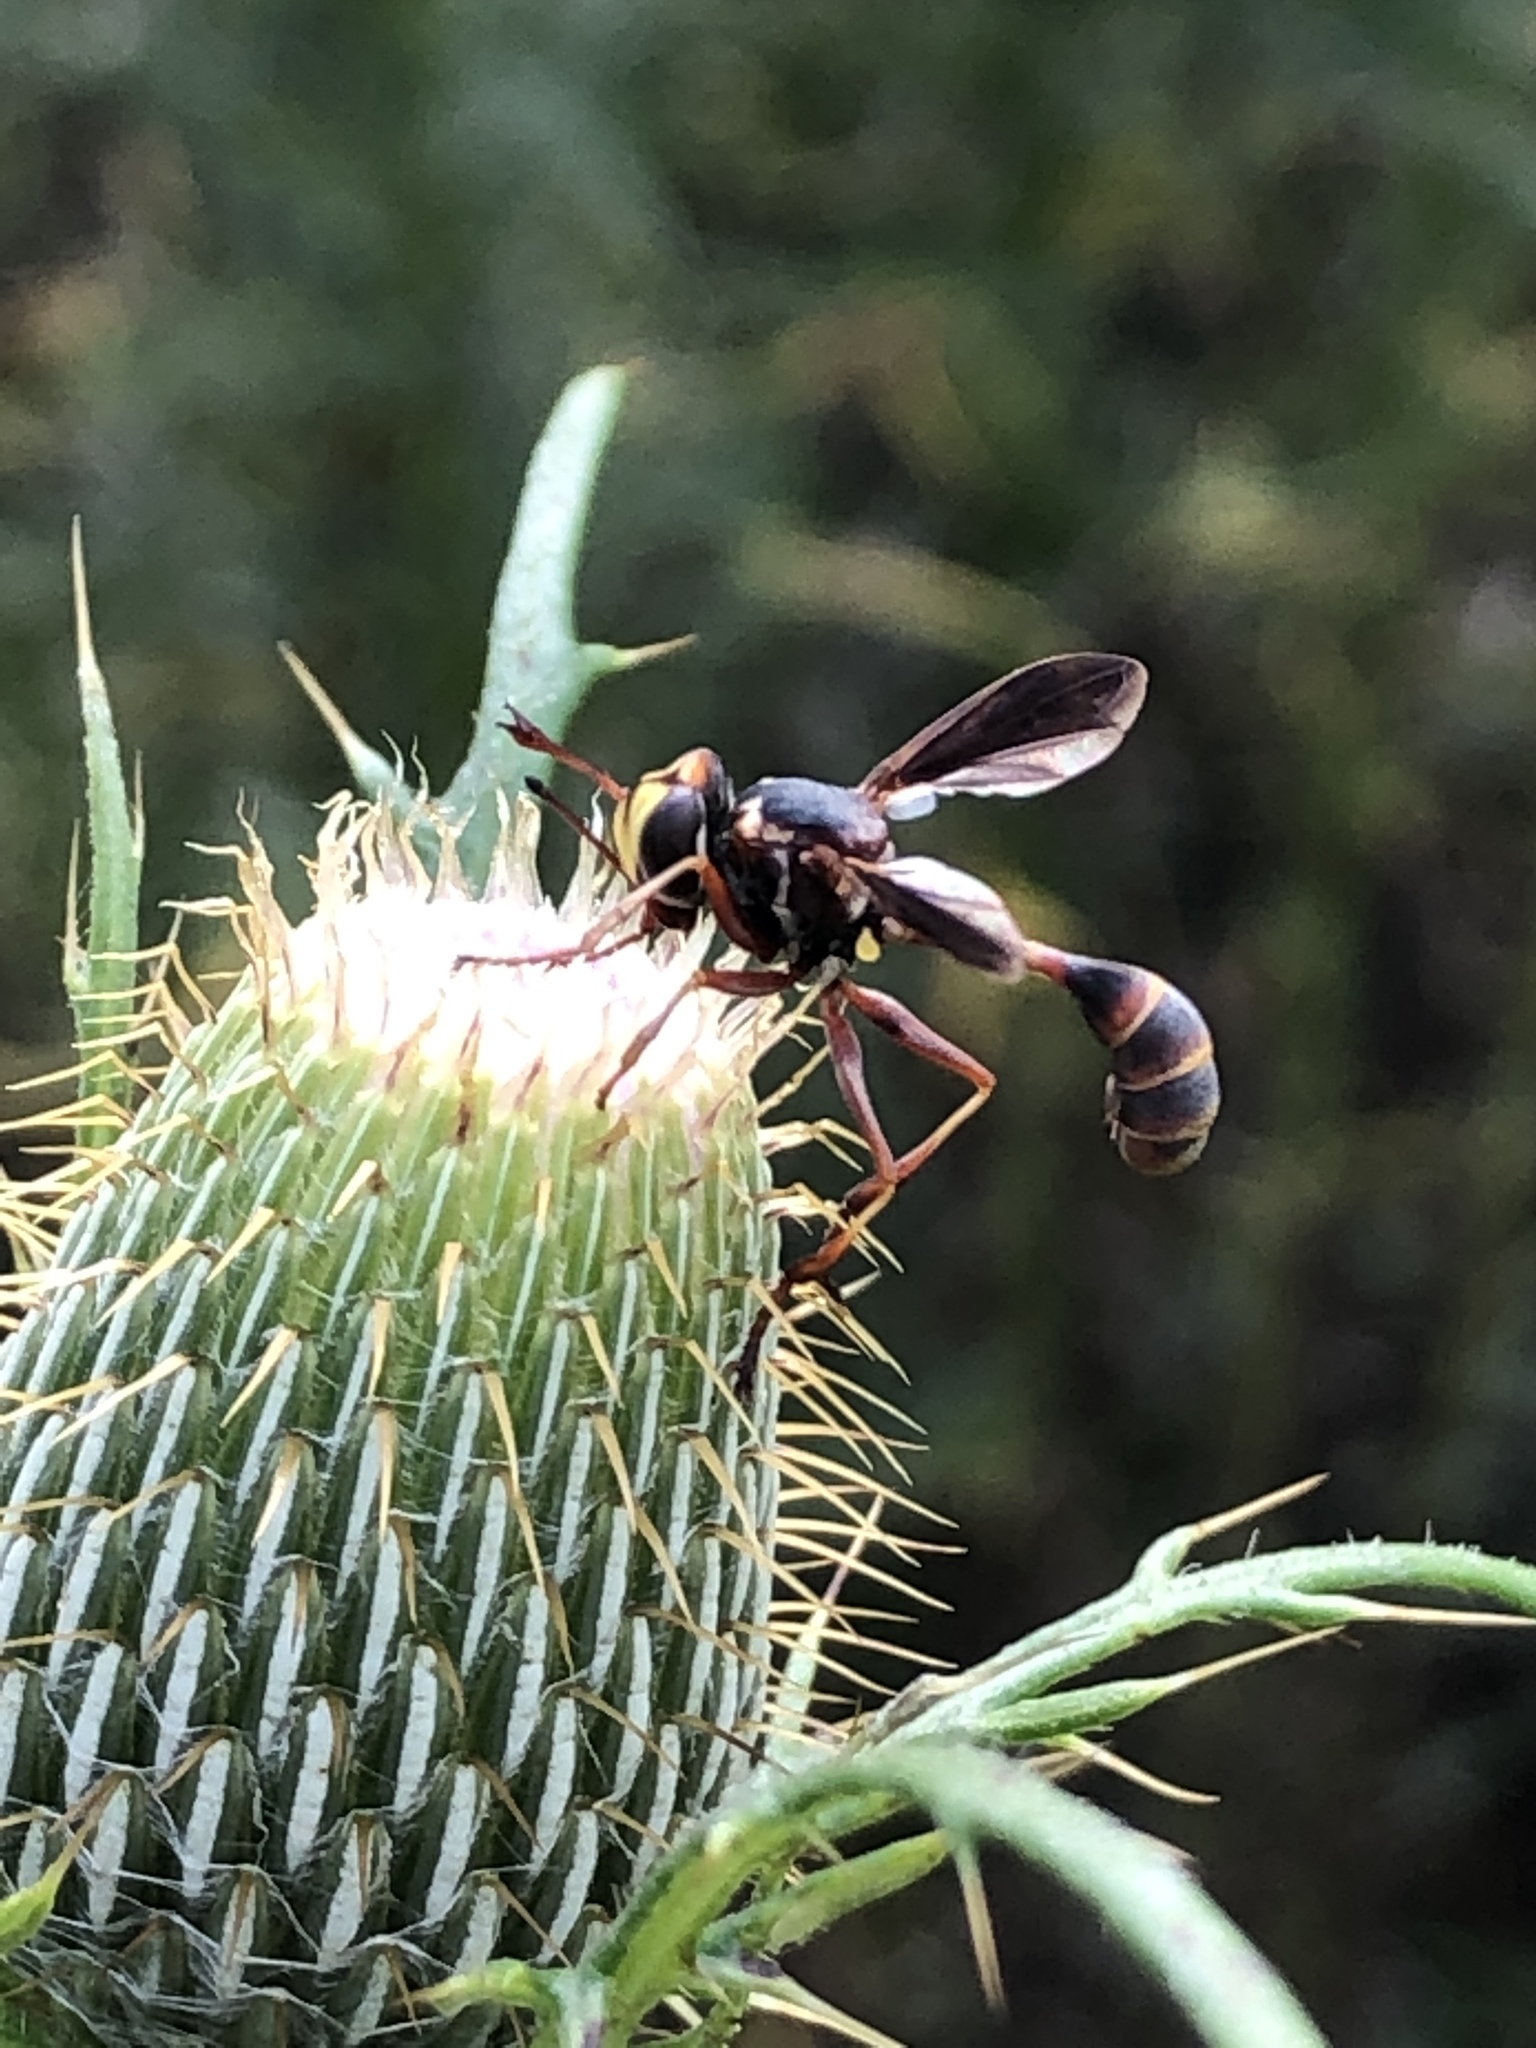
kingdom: Animalia
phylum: Arthropoda
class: Insecta
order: Diptera
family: Conopidae
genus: Physocephala
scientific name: Physocephala sagittaria
